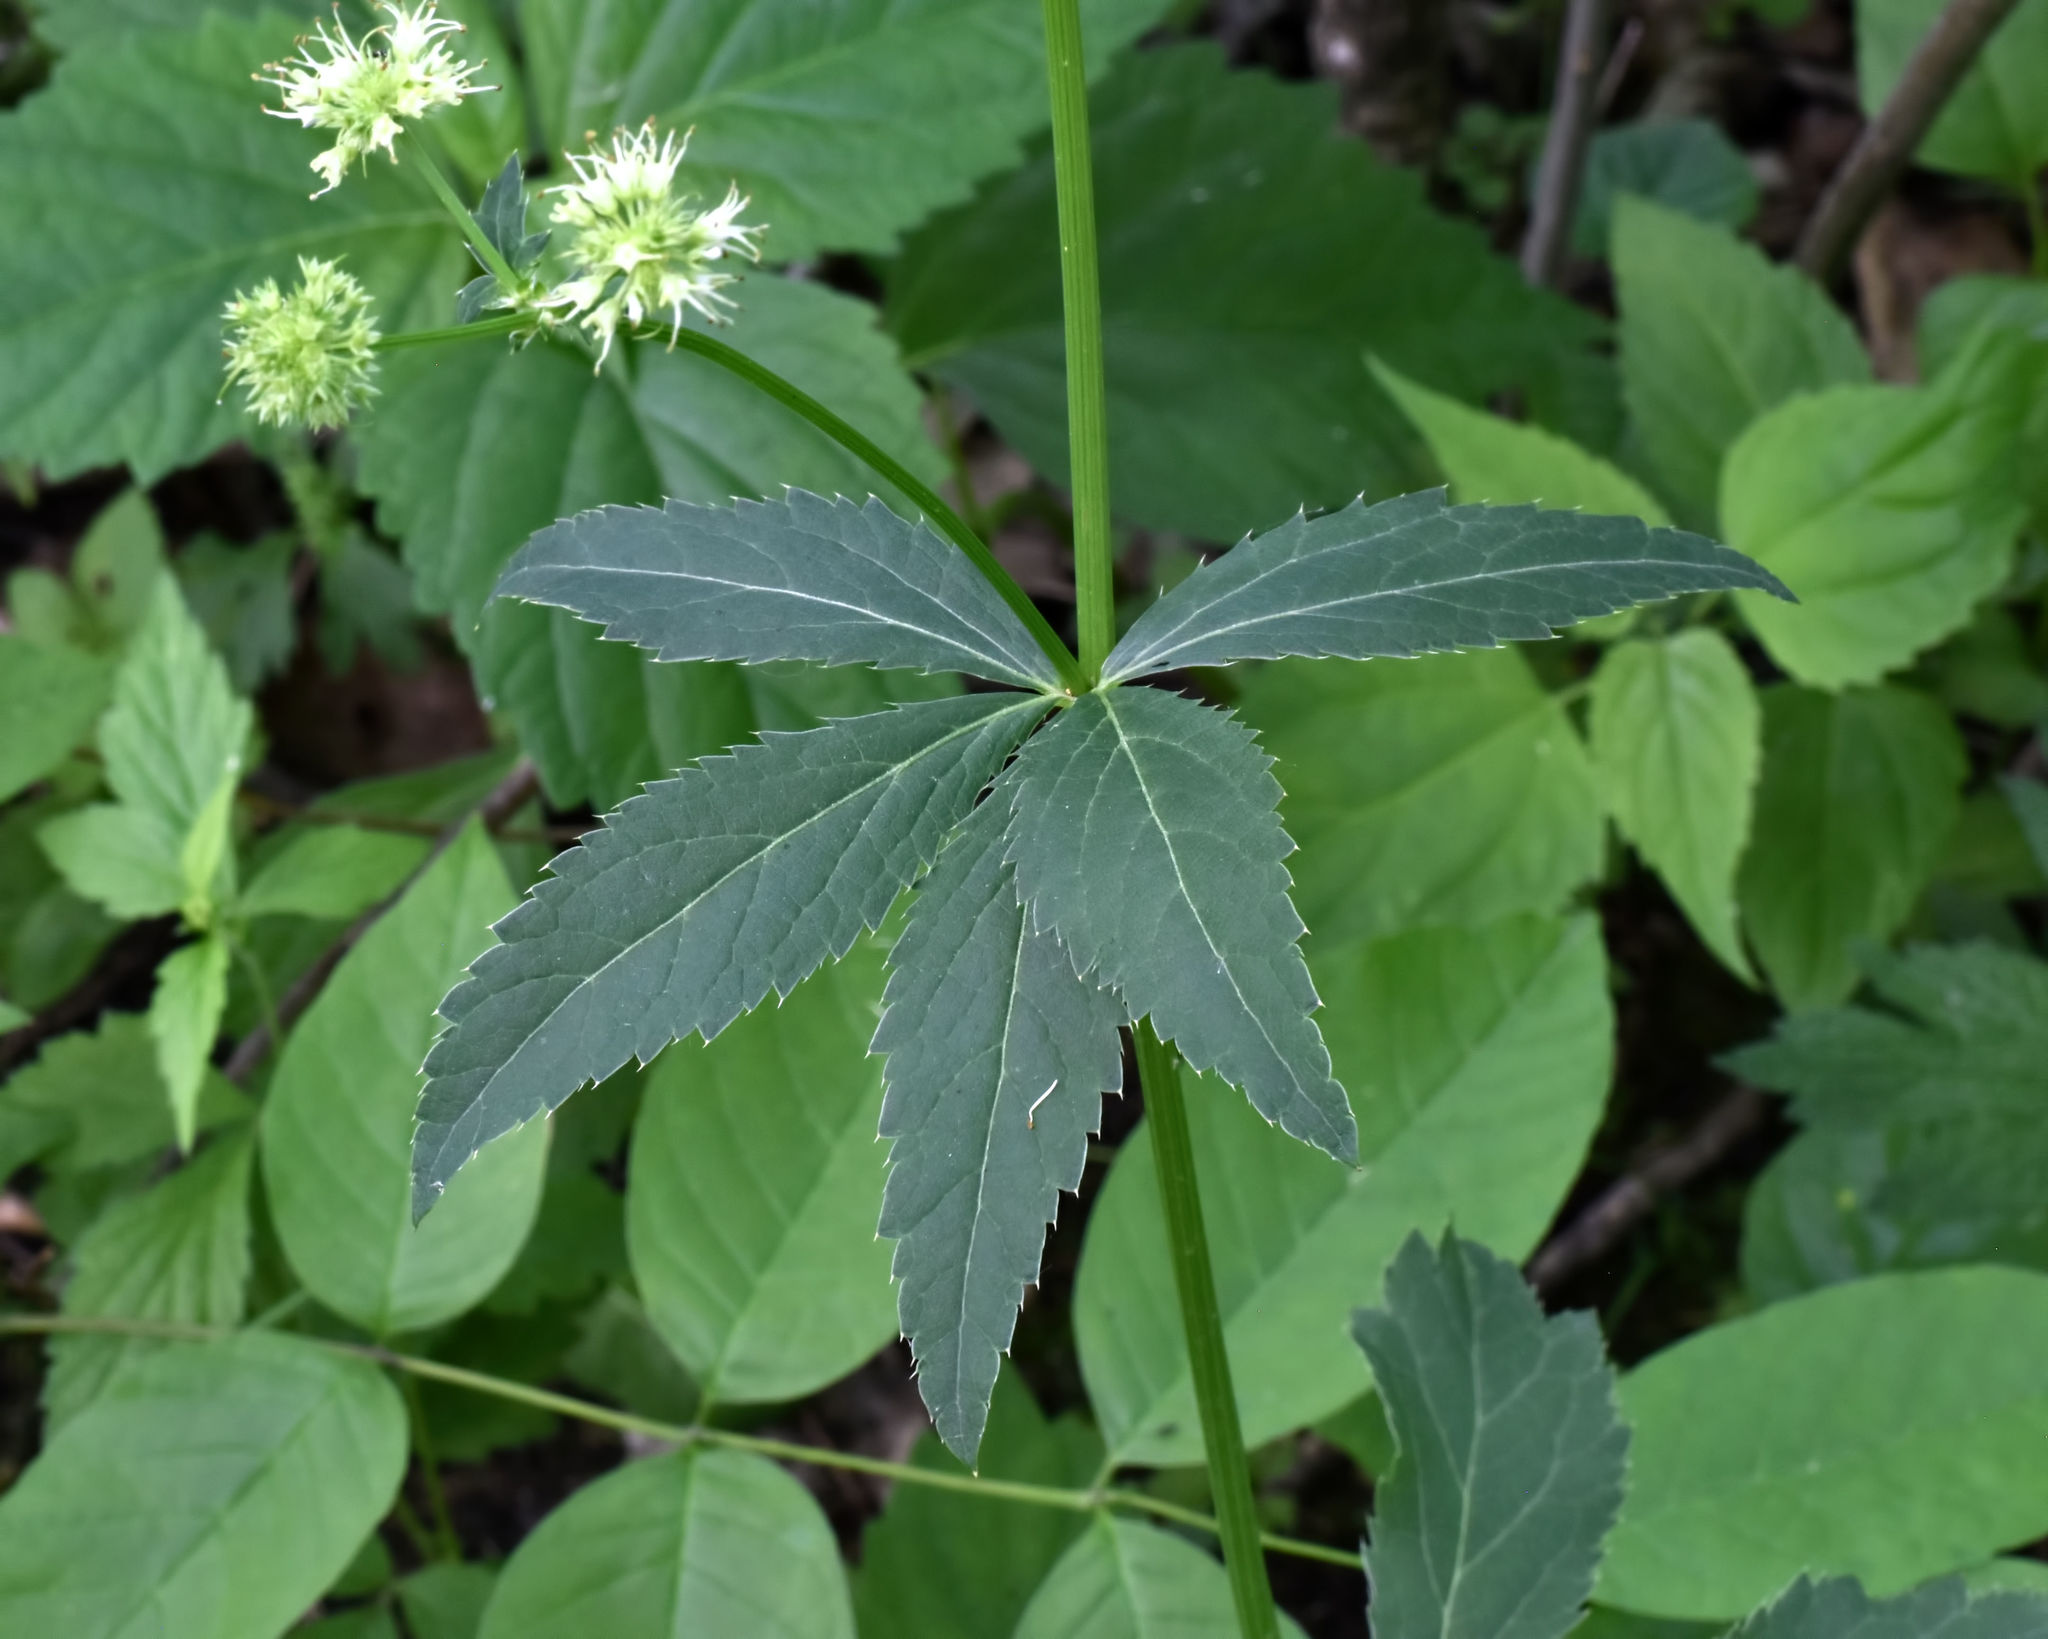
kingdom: Plantae
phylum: Tracheophyta
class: Magnoliopsida
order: Apiales
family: Apiaceae
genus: Sanicula
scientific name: Sanicula marilandica
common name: Black snakeroot
